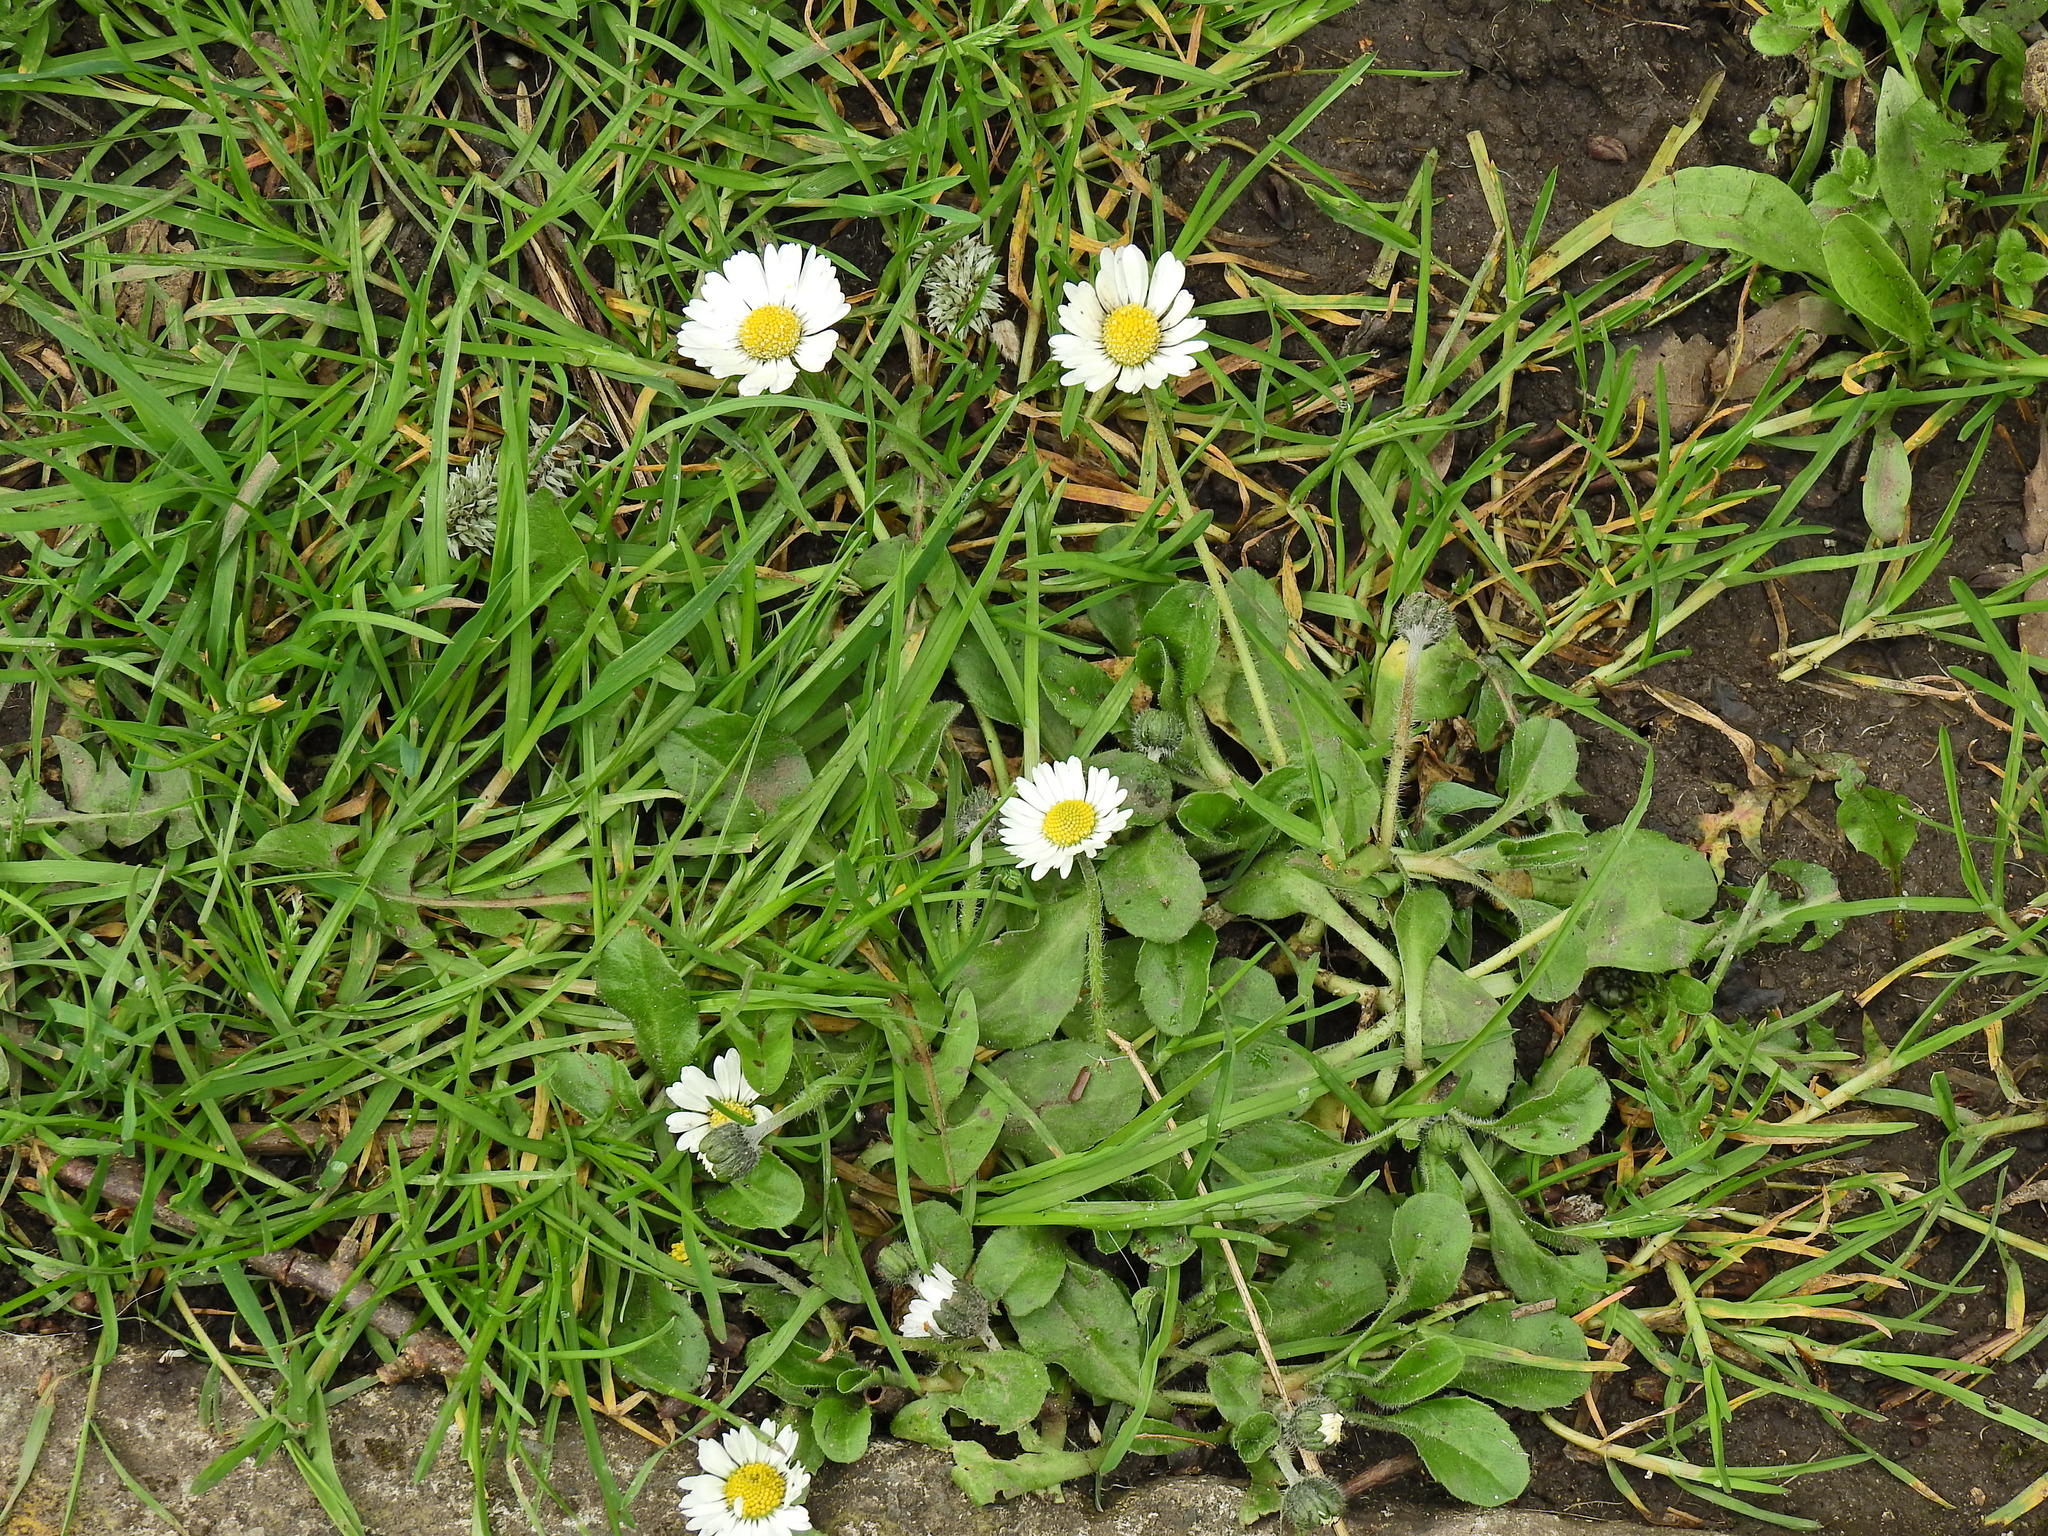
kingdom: Plantae
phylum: Tracheophyta
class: Magnoliopsida
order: Asterales
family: Asteraceae
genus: Bellis
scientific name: Bellis perennis
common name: Lawndaisy
